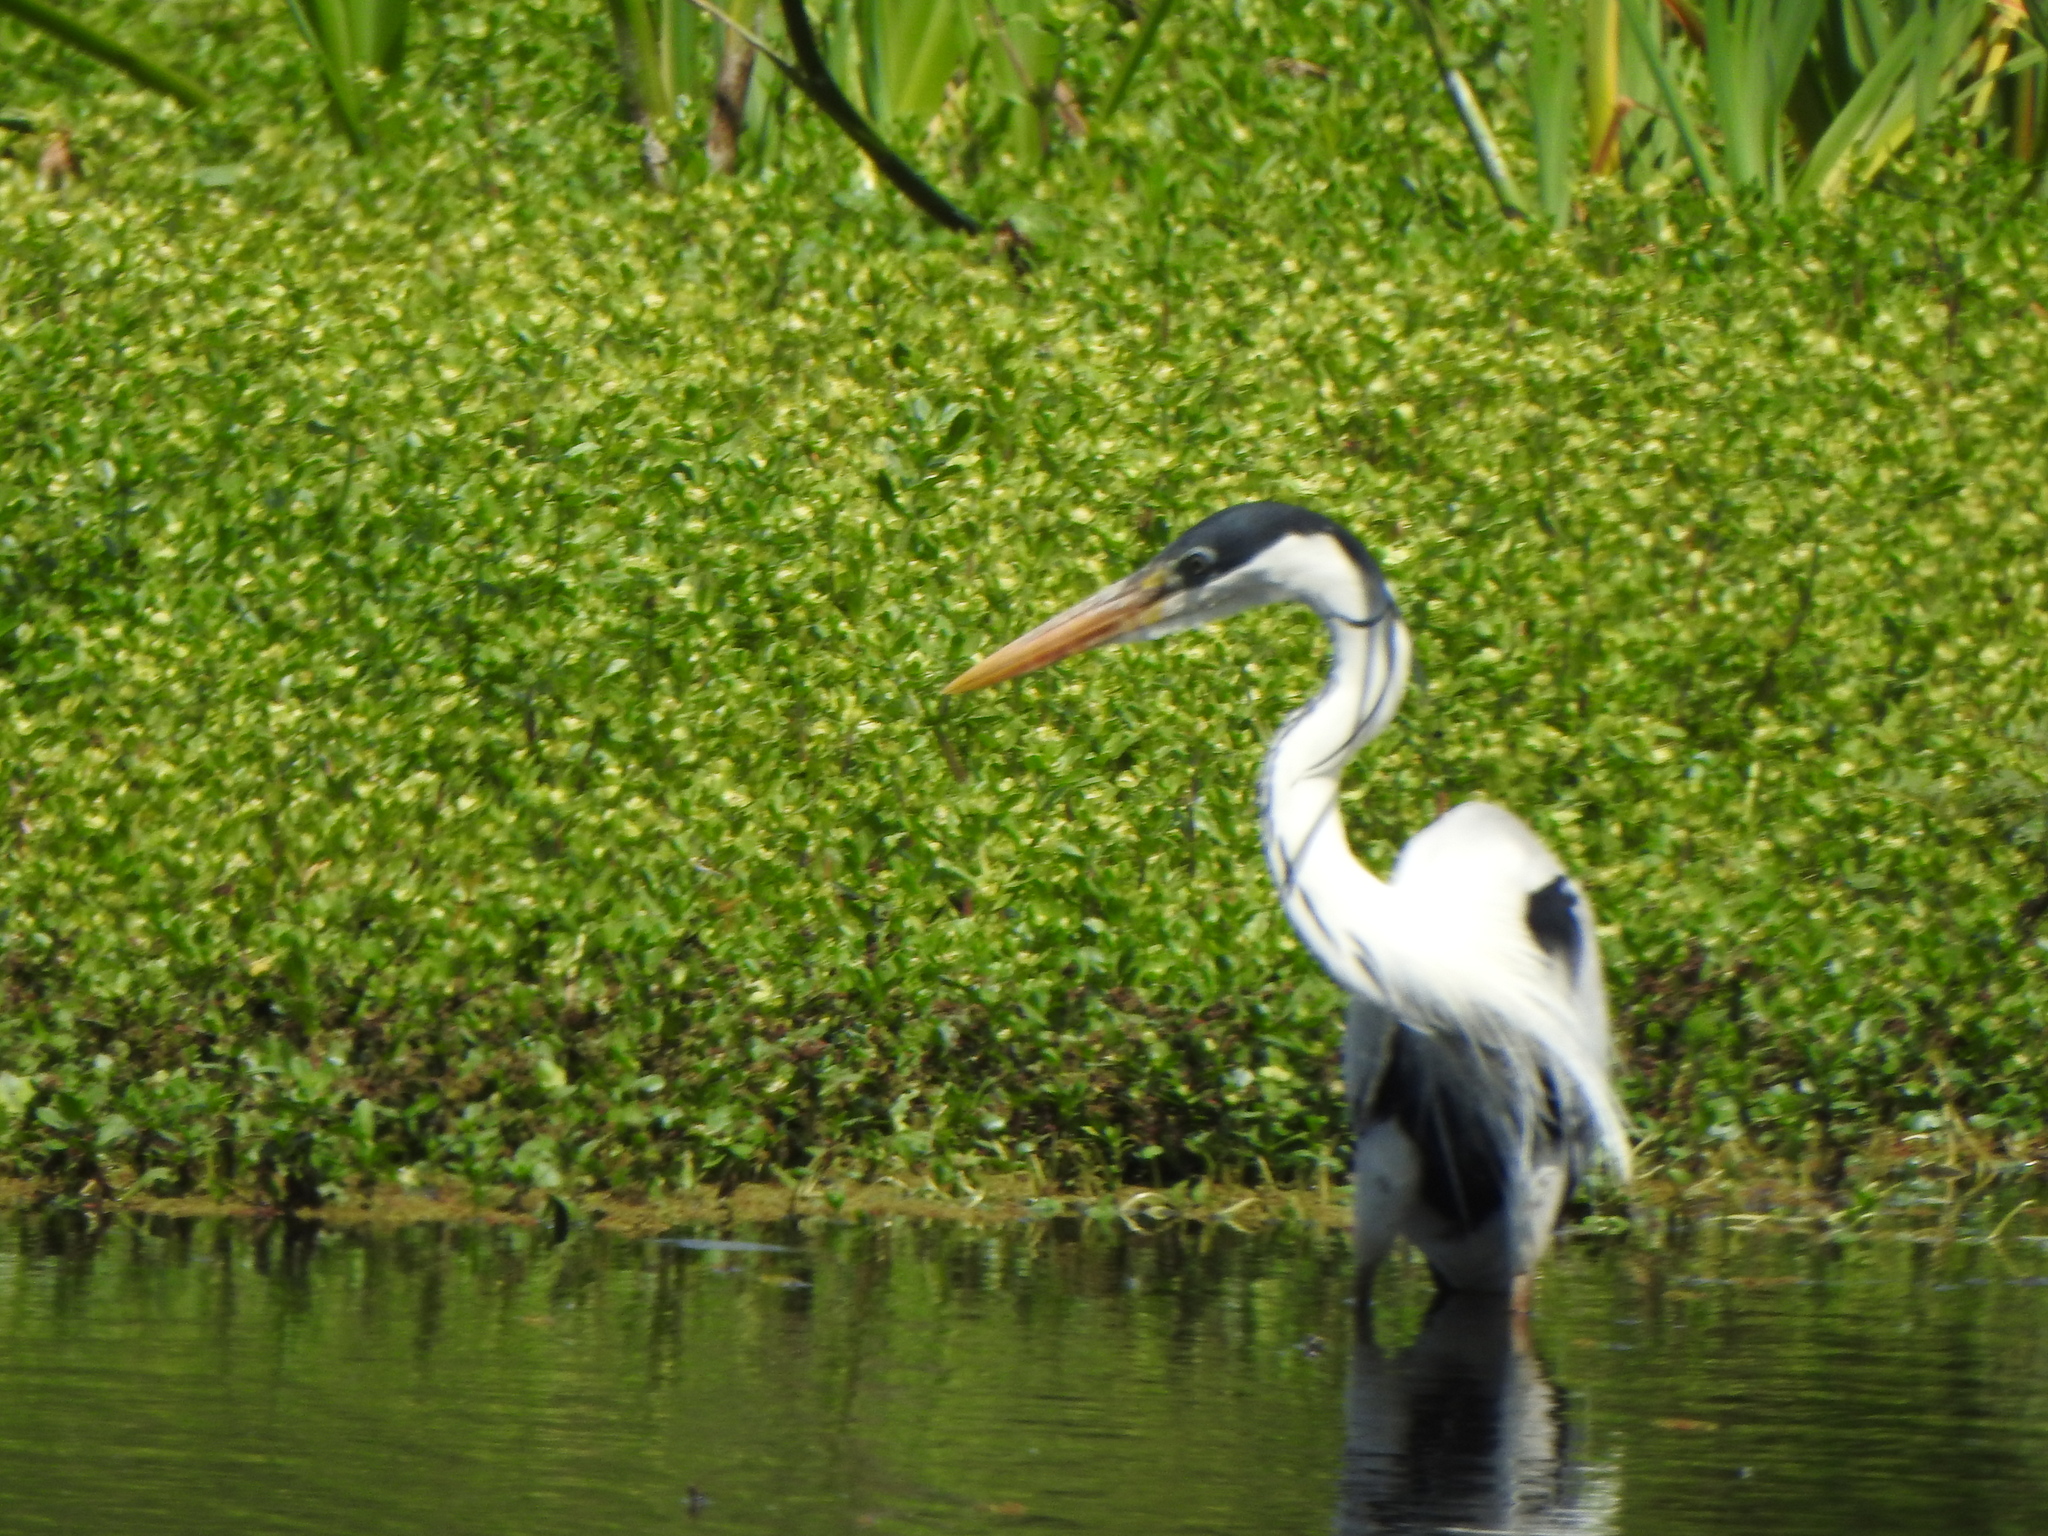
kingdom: Animalia
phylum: Chordata
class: Aves
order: Pelecaniformes
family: Ardeidae
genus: Ardea
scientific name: Ardea cocoi
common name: Cocoi heron
